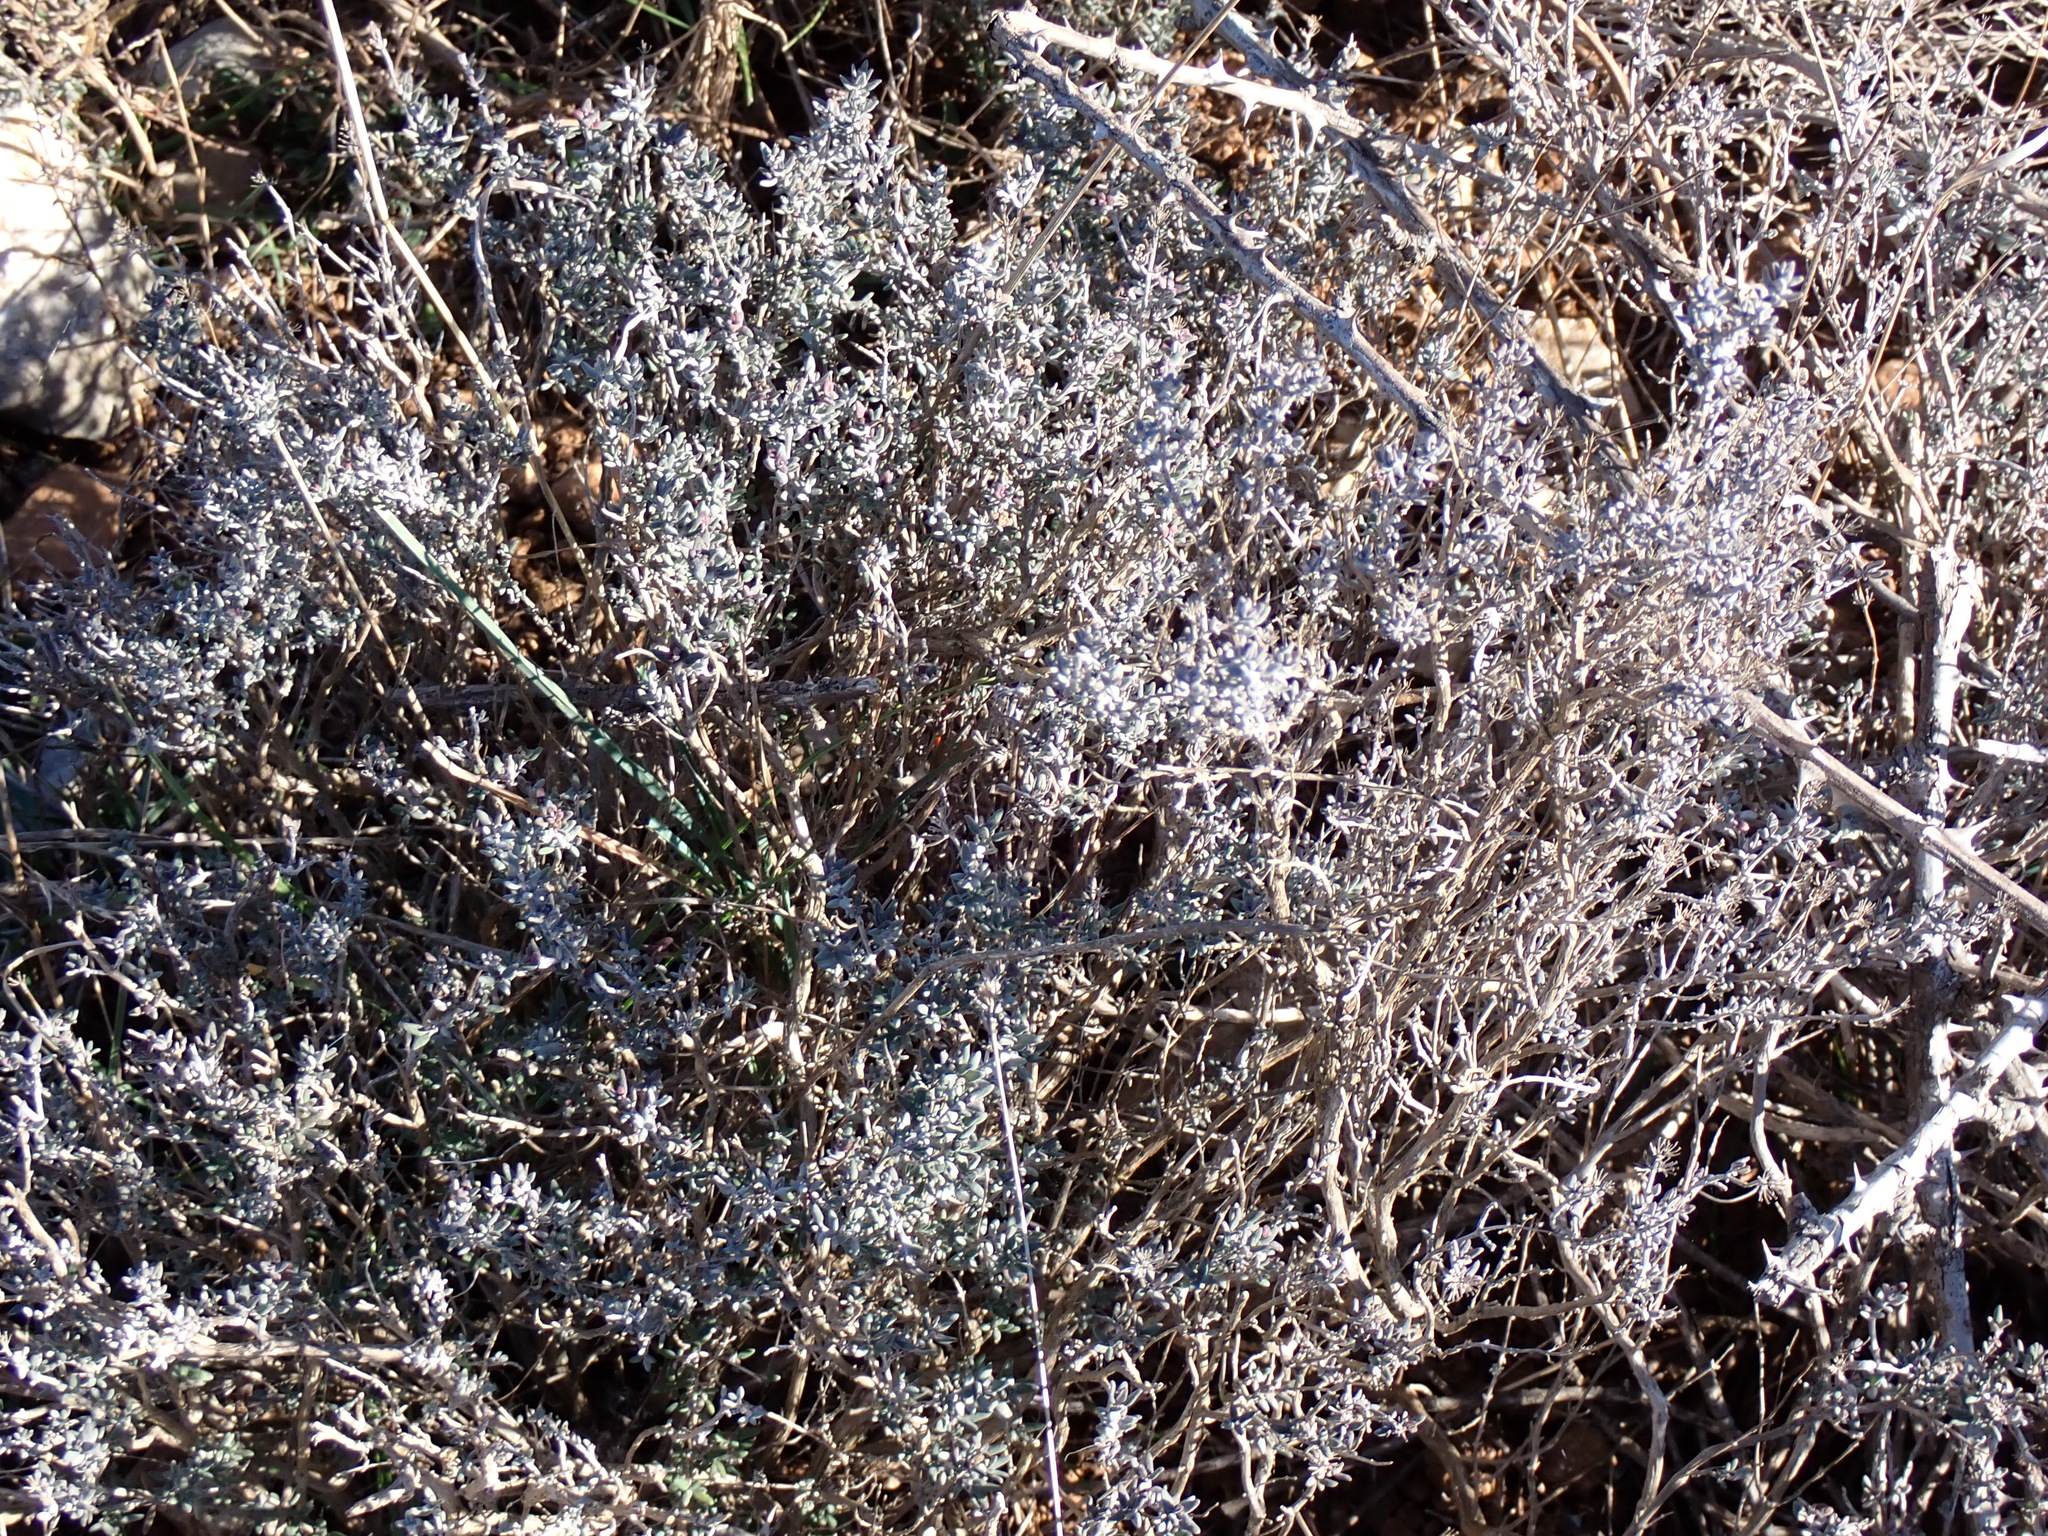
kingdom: Plantae
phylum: Tracheophyta
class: Magnoliopsida
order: Lamiales
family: Lamiaceae
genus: Thymus
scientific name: Thymus vulgaris
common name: Garden thyme
